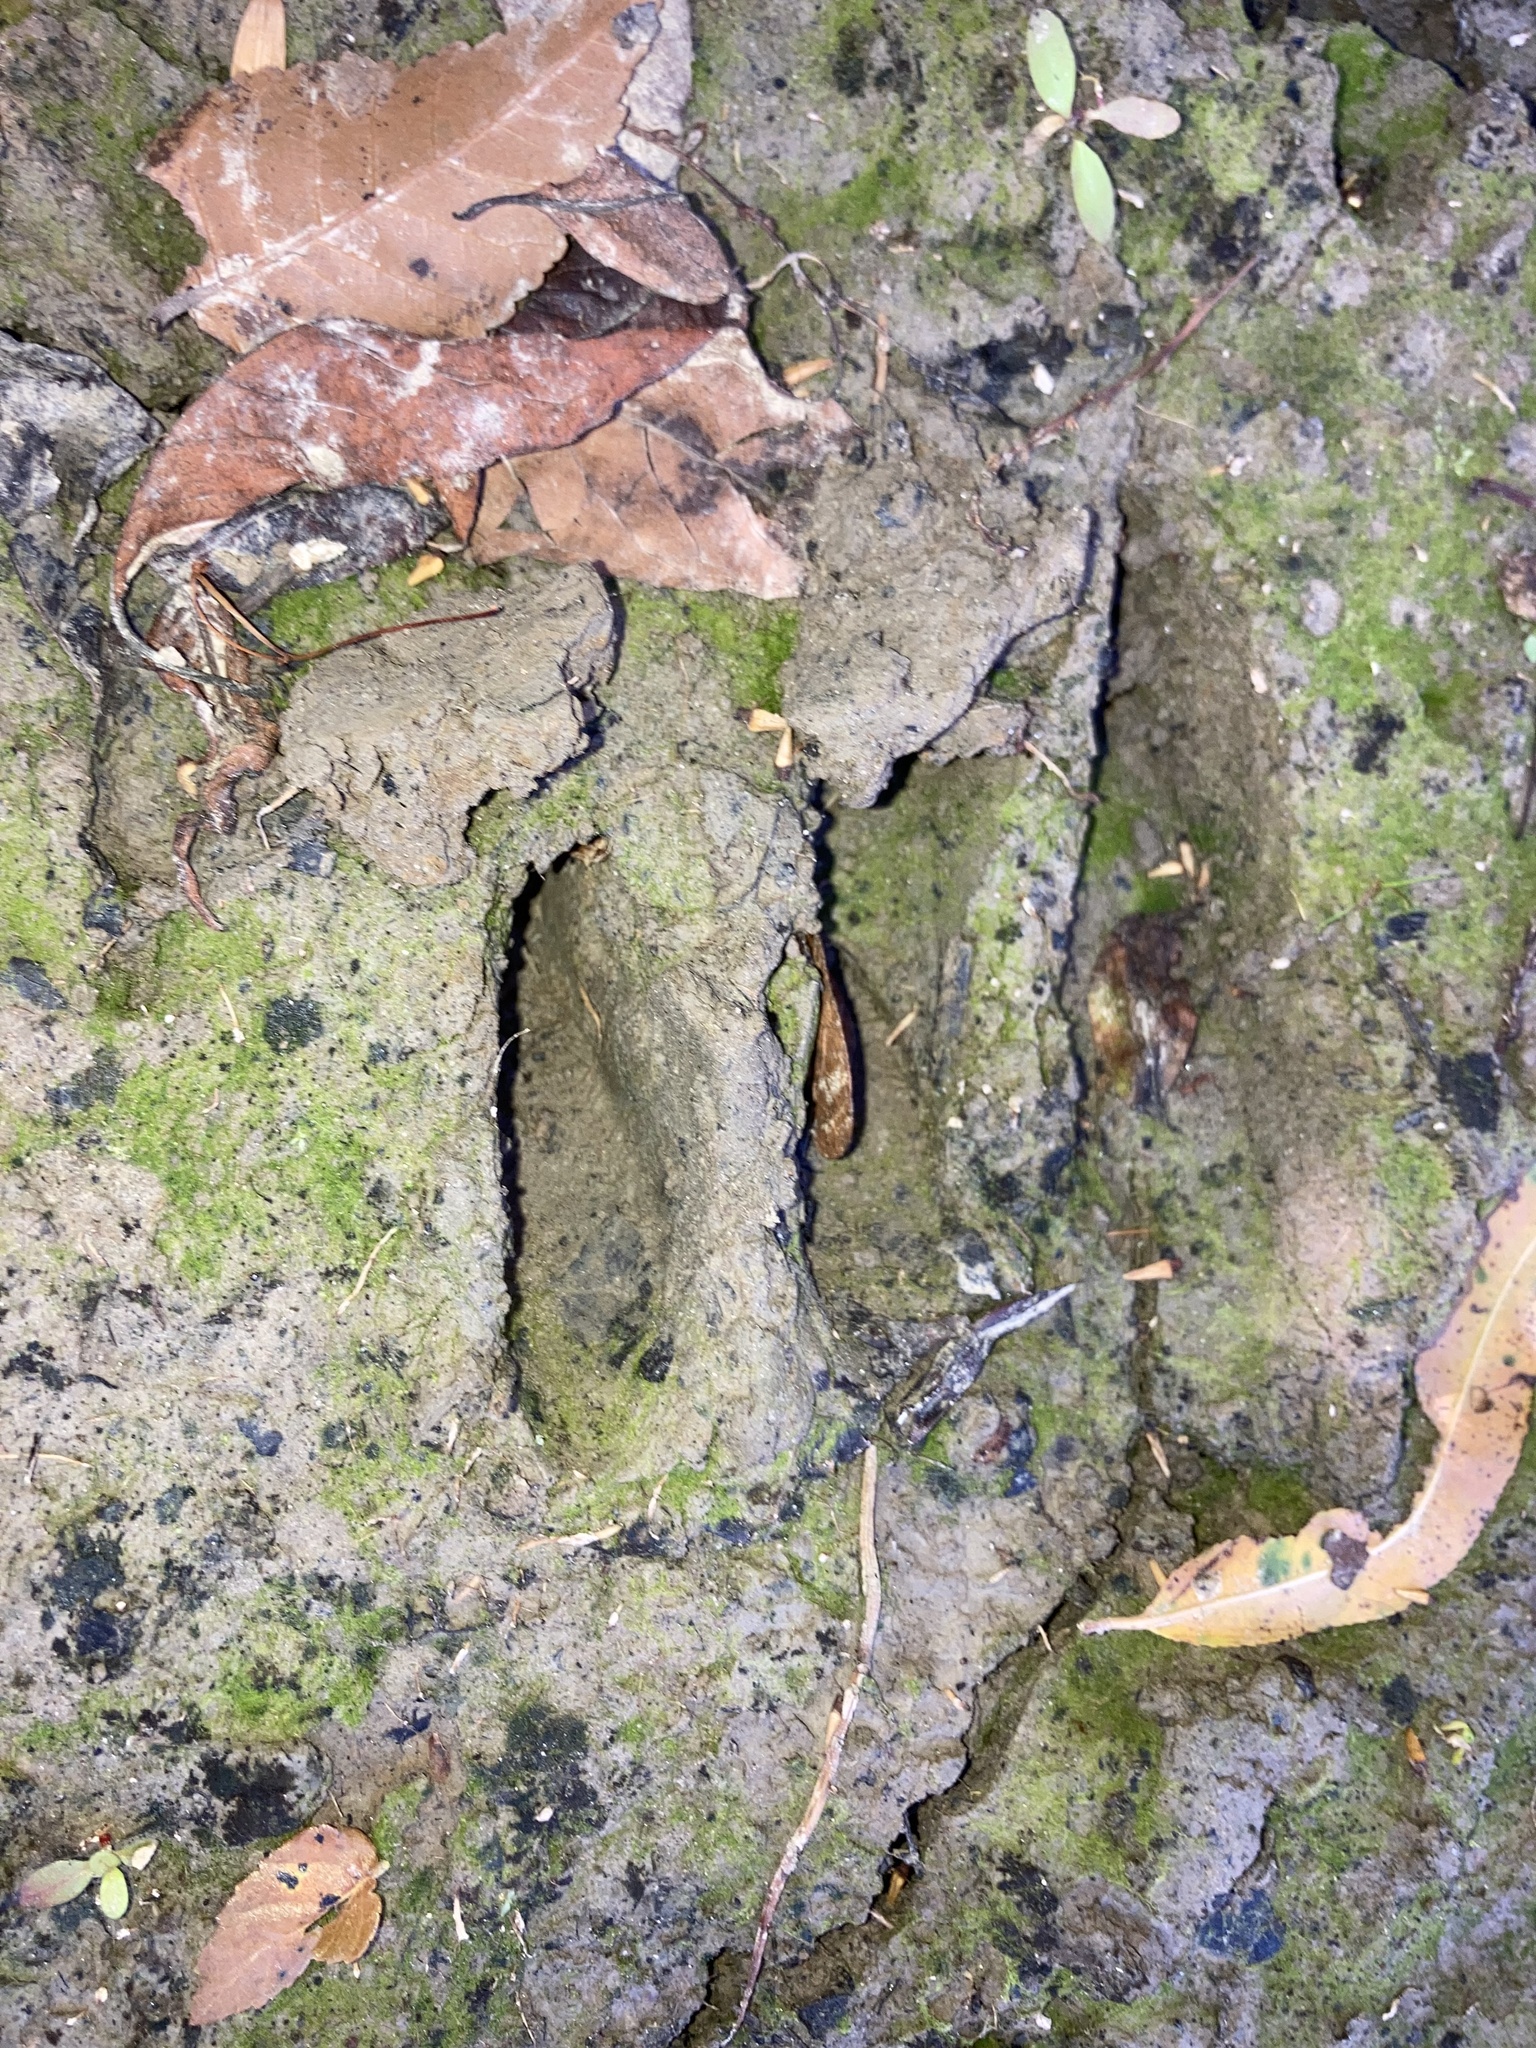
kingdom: Animalia
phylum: Chordata
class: Mammalia
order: Artiodactyla
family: Cervidae
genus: Odocoileus
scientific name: Odocoileus virginianus
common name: White-tailed deer
